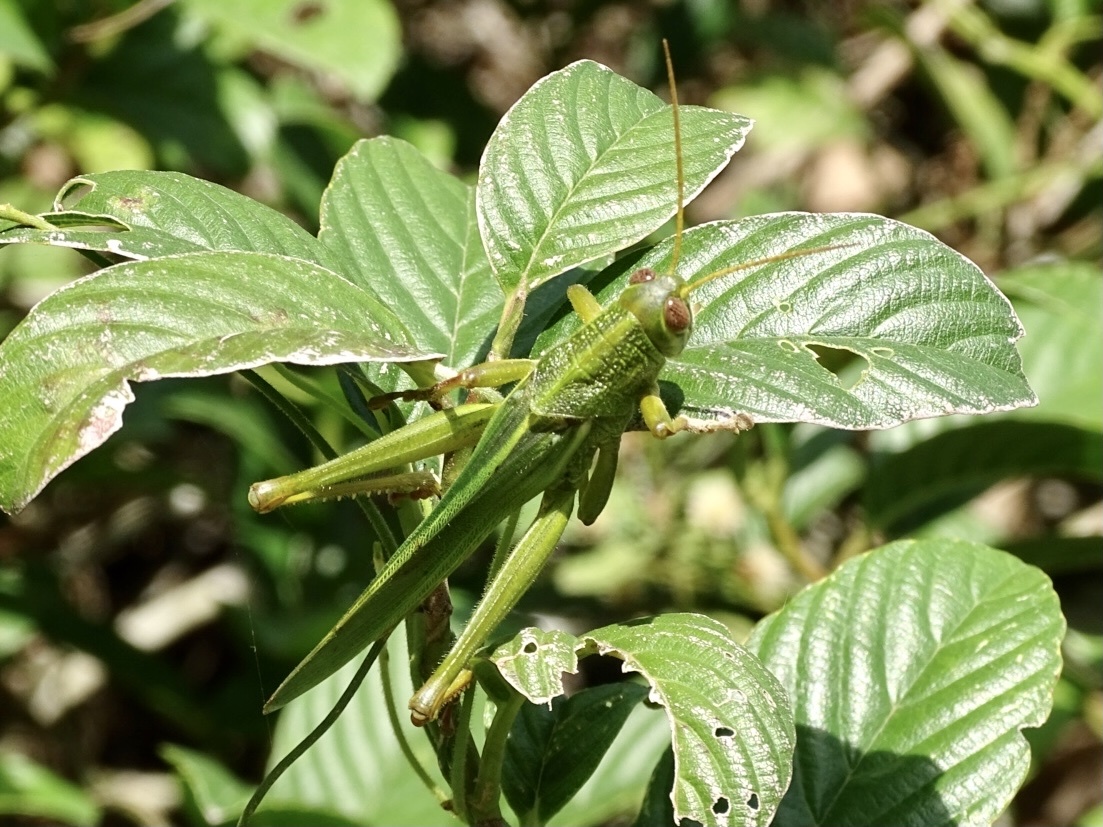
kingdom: Animalia
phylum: Arthropoda
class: Insecta
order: Orthoptera
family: Acrididae
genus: Chondracris
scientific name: Chondracris rosea
